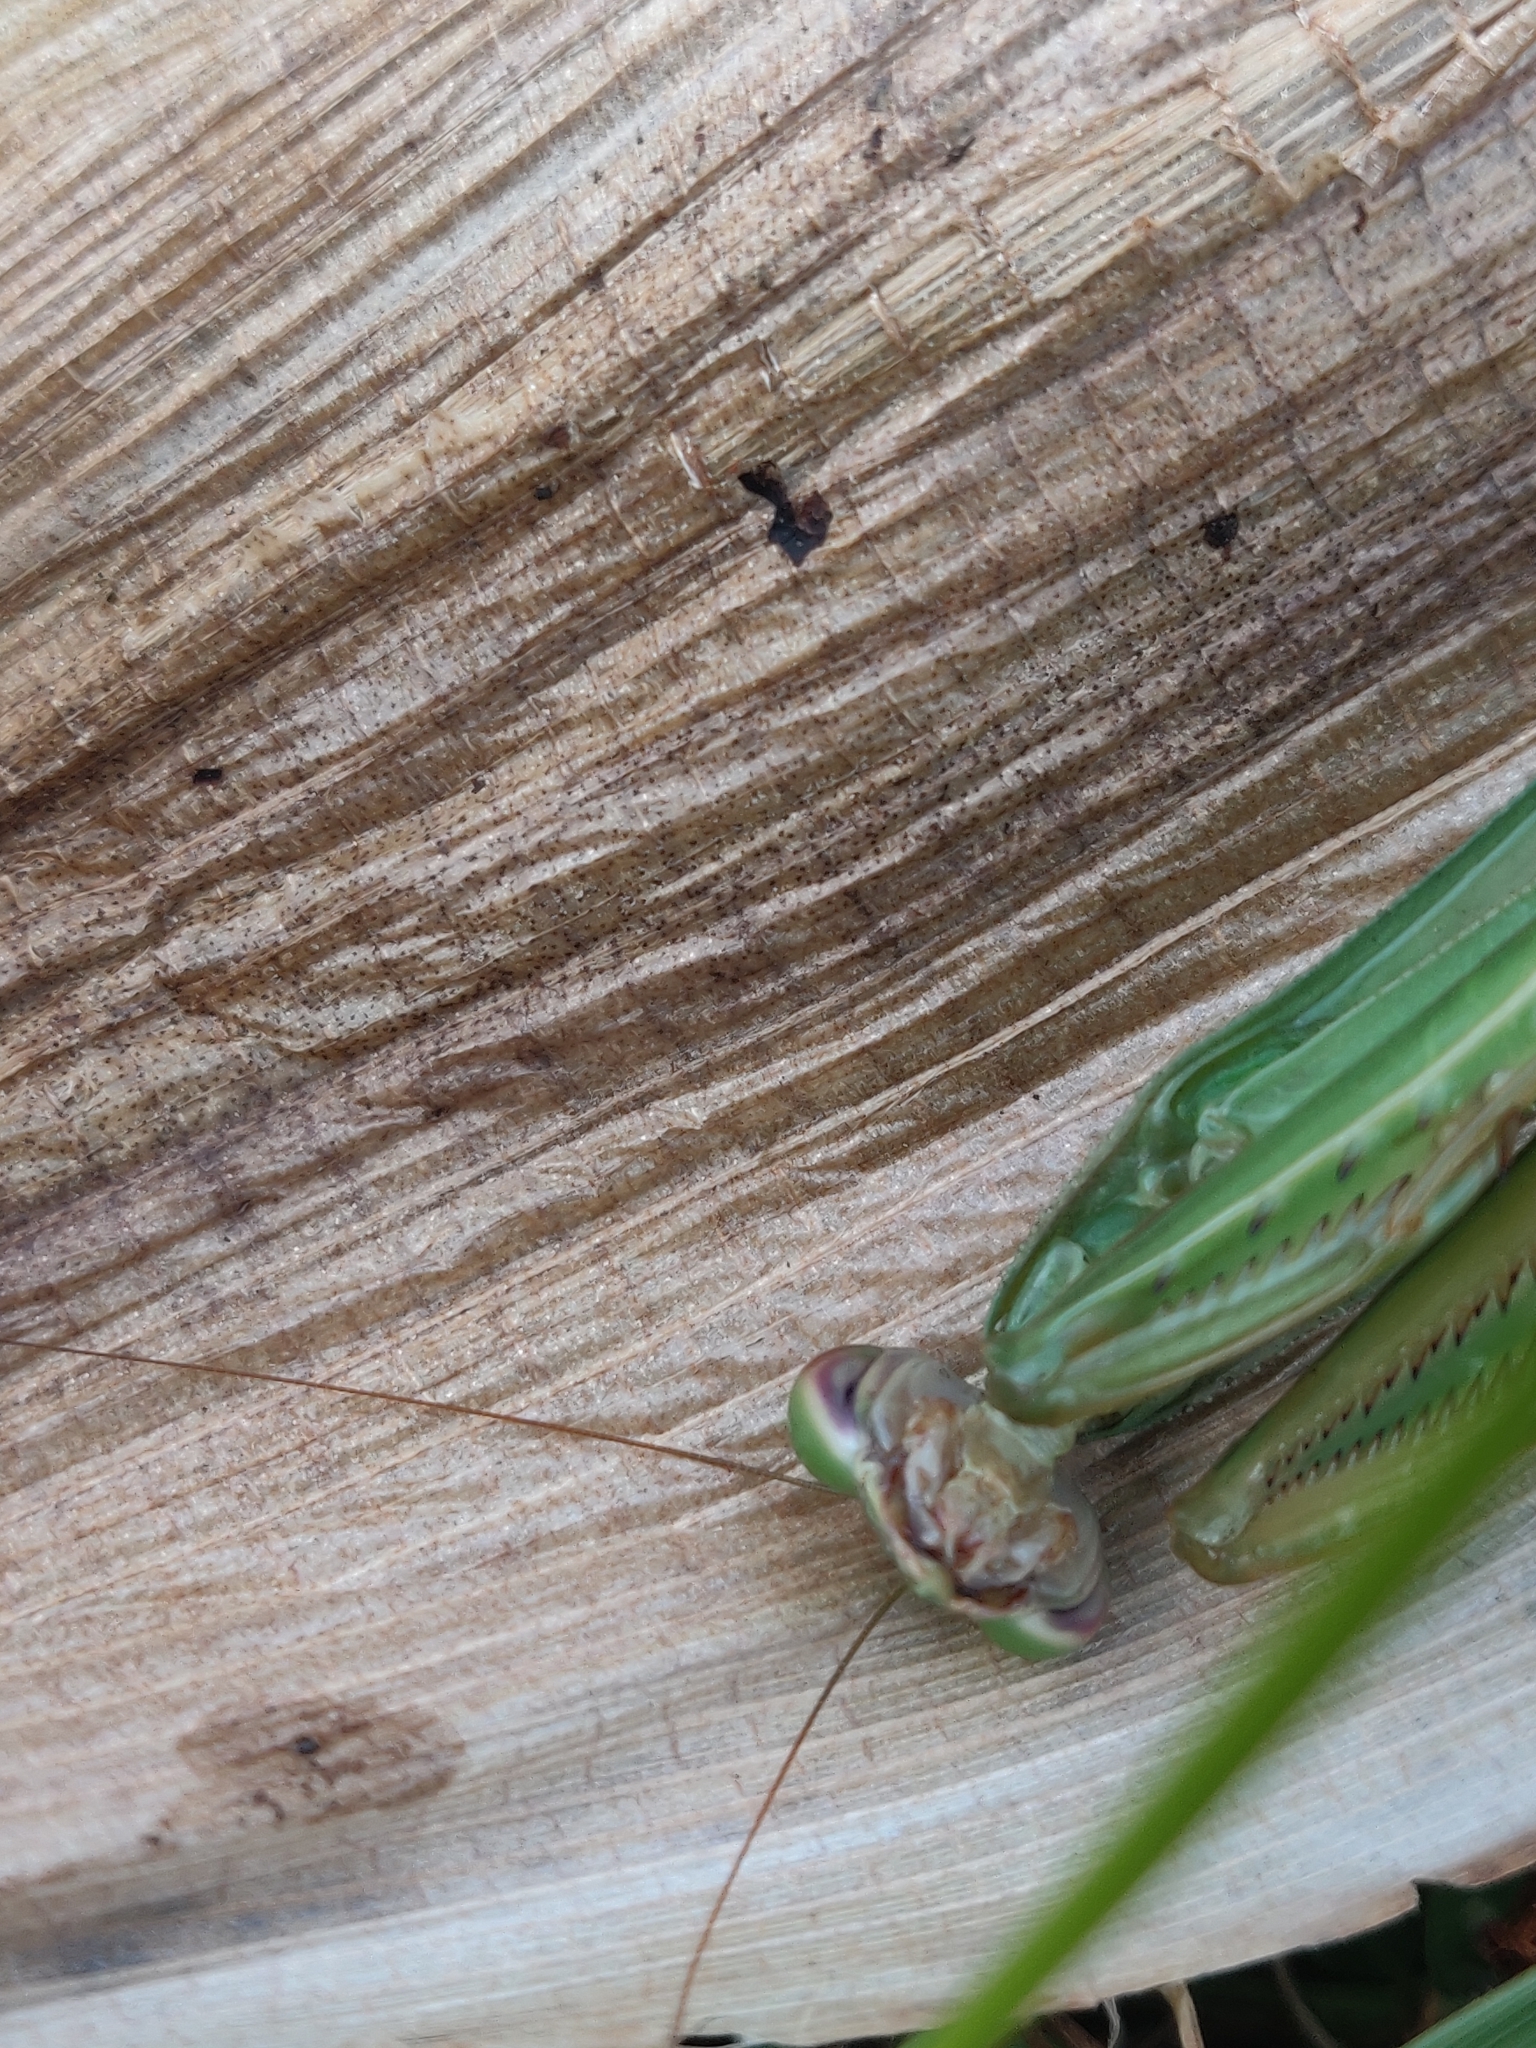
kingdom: Animalia
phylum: Arthropoda
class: Insecta
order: Mantodea
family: Mantidae
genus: Tenodera
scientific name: Tenodera angustipennis
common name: Asian mantis
